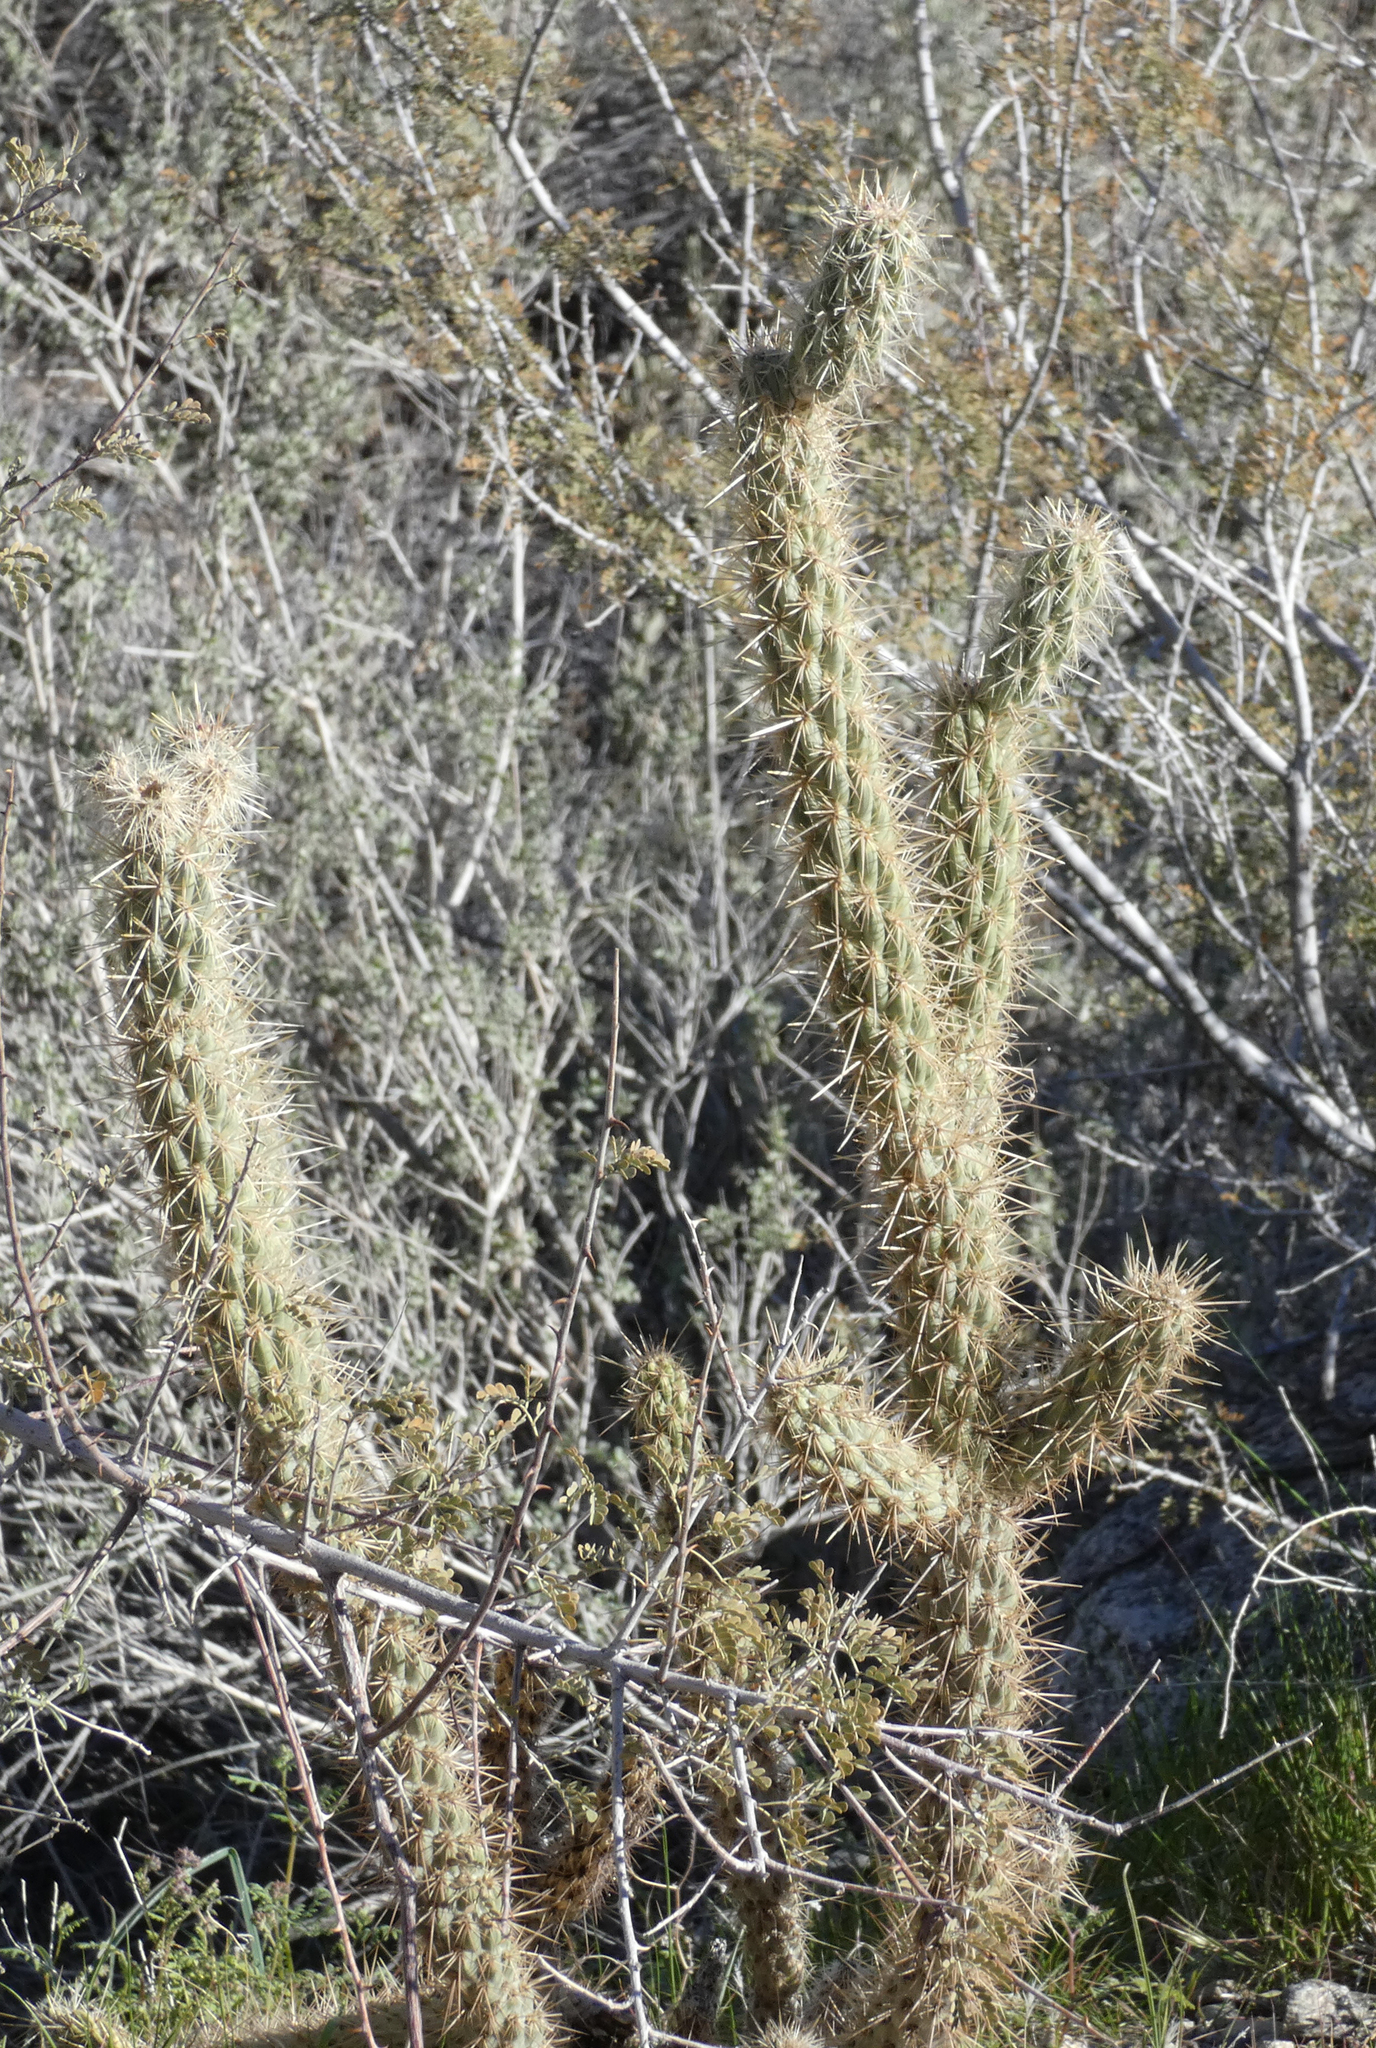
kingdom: Plantae
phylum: Tracheophyta
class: Magnoliopsida
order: Caryophyllales
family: Cactaceae
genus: Cylindropuntia
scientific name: Cylindropuntia ganderi
